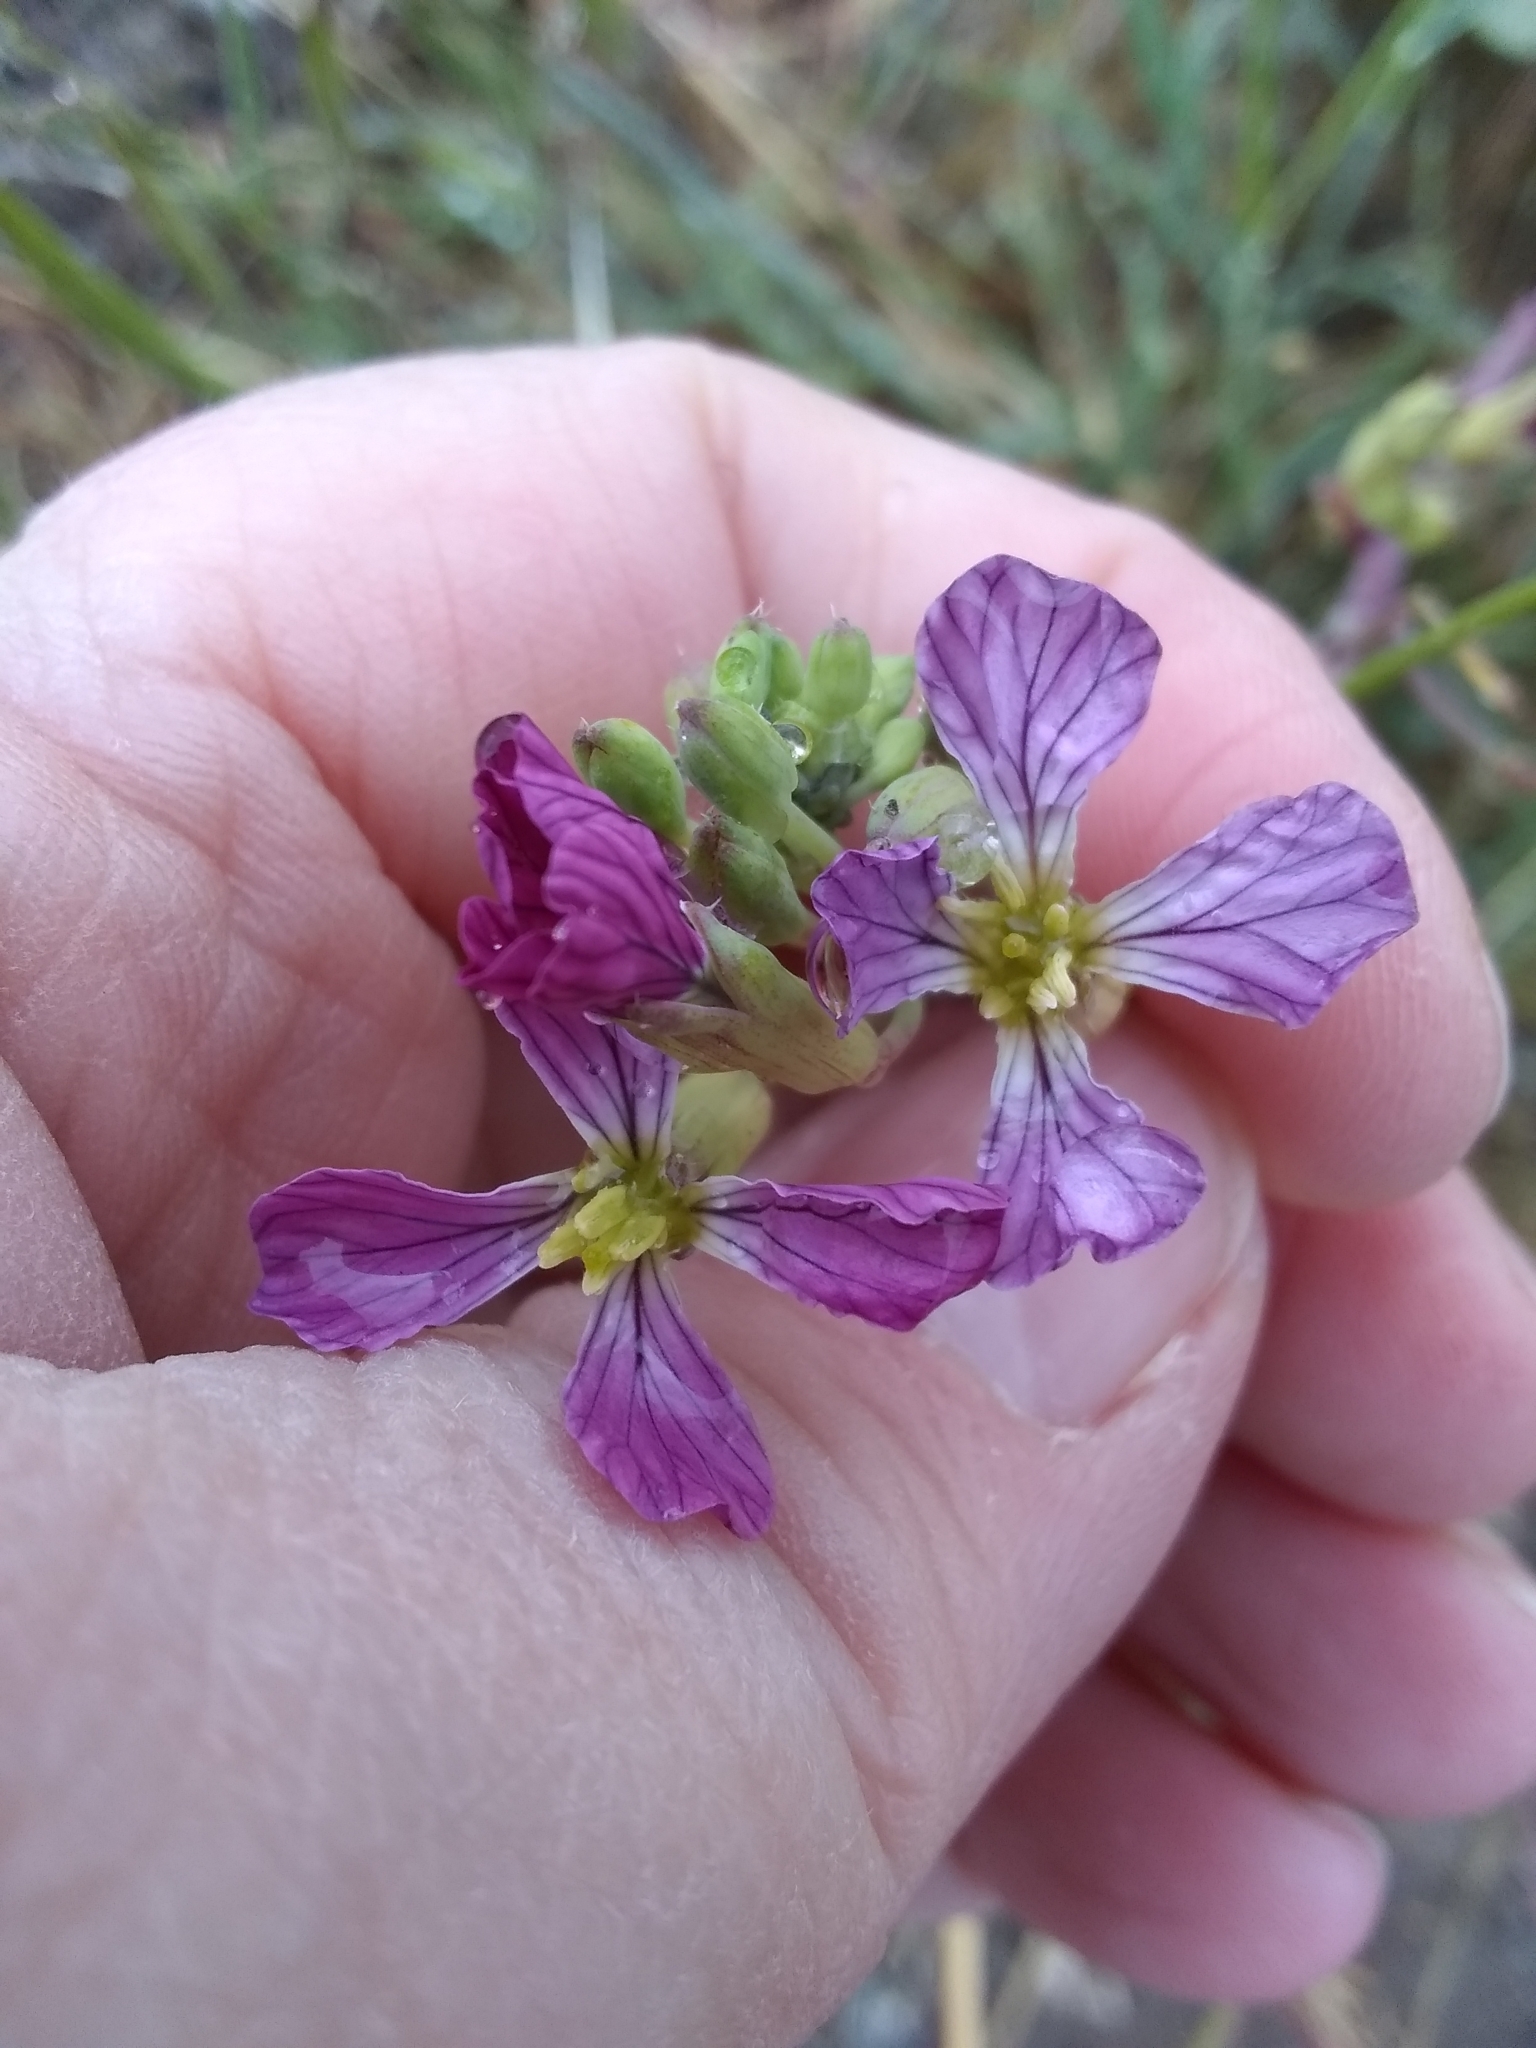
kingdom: Plantae
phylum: Tracheophyta
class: Magnoliopsida
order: Brassicales
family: Brassicaceae
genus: Raphanus
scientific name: Raphanus sativus
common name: Cultivated radish
